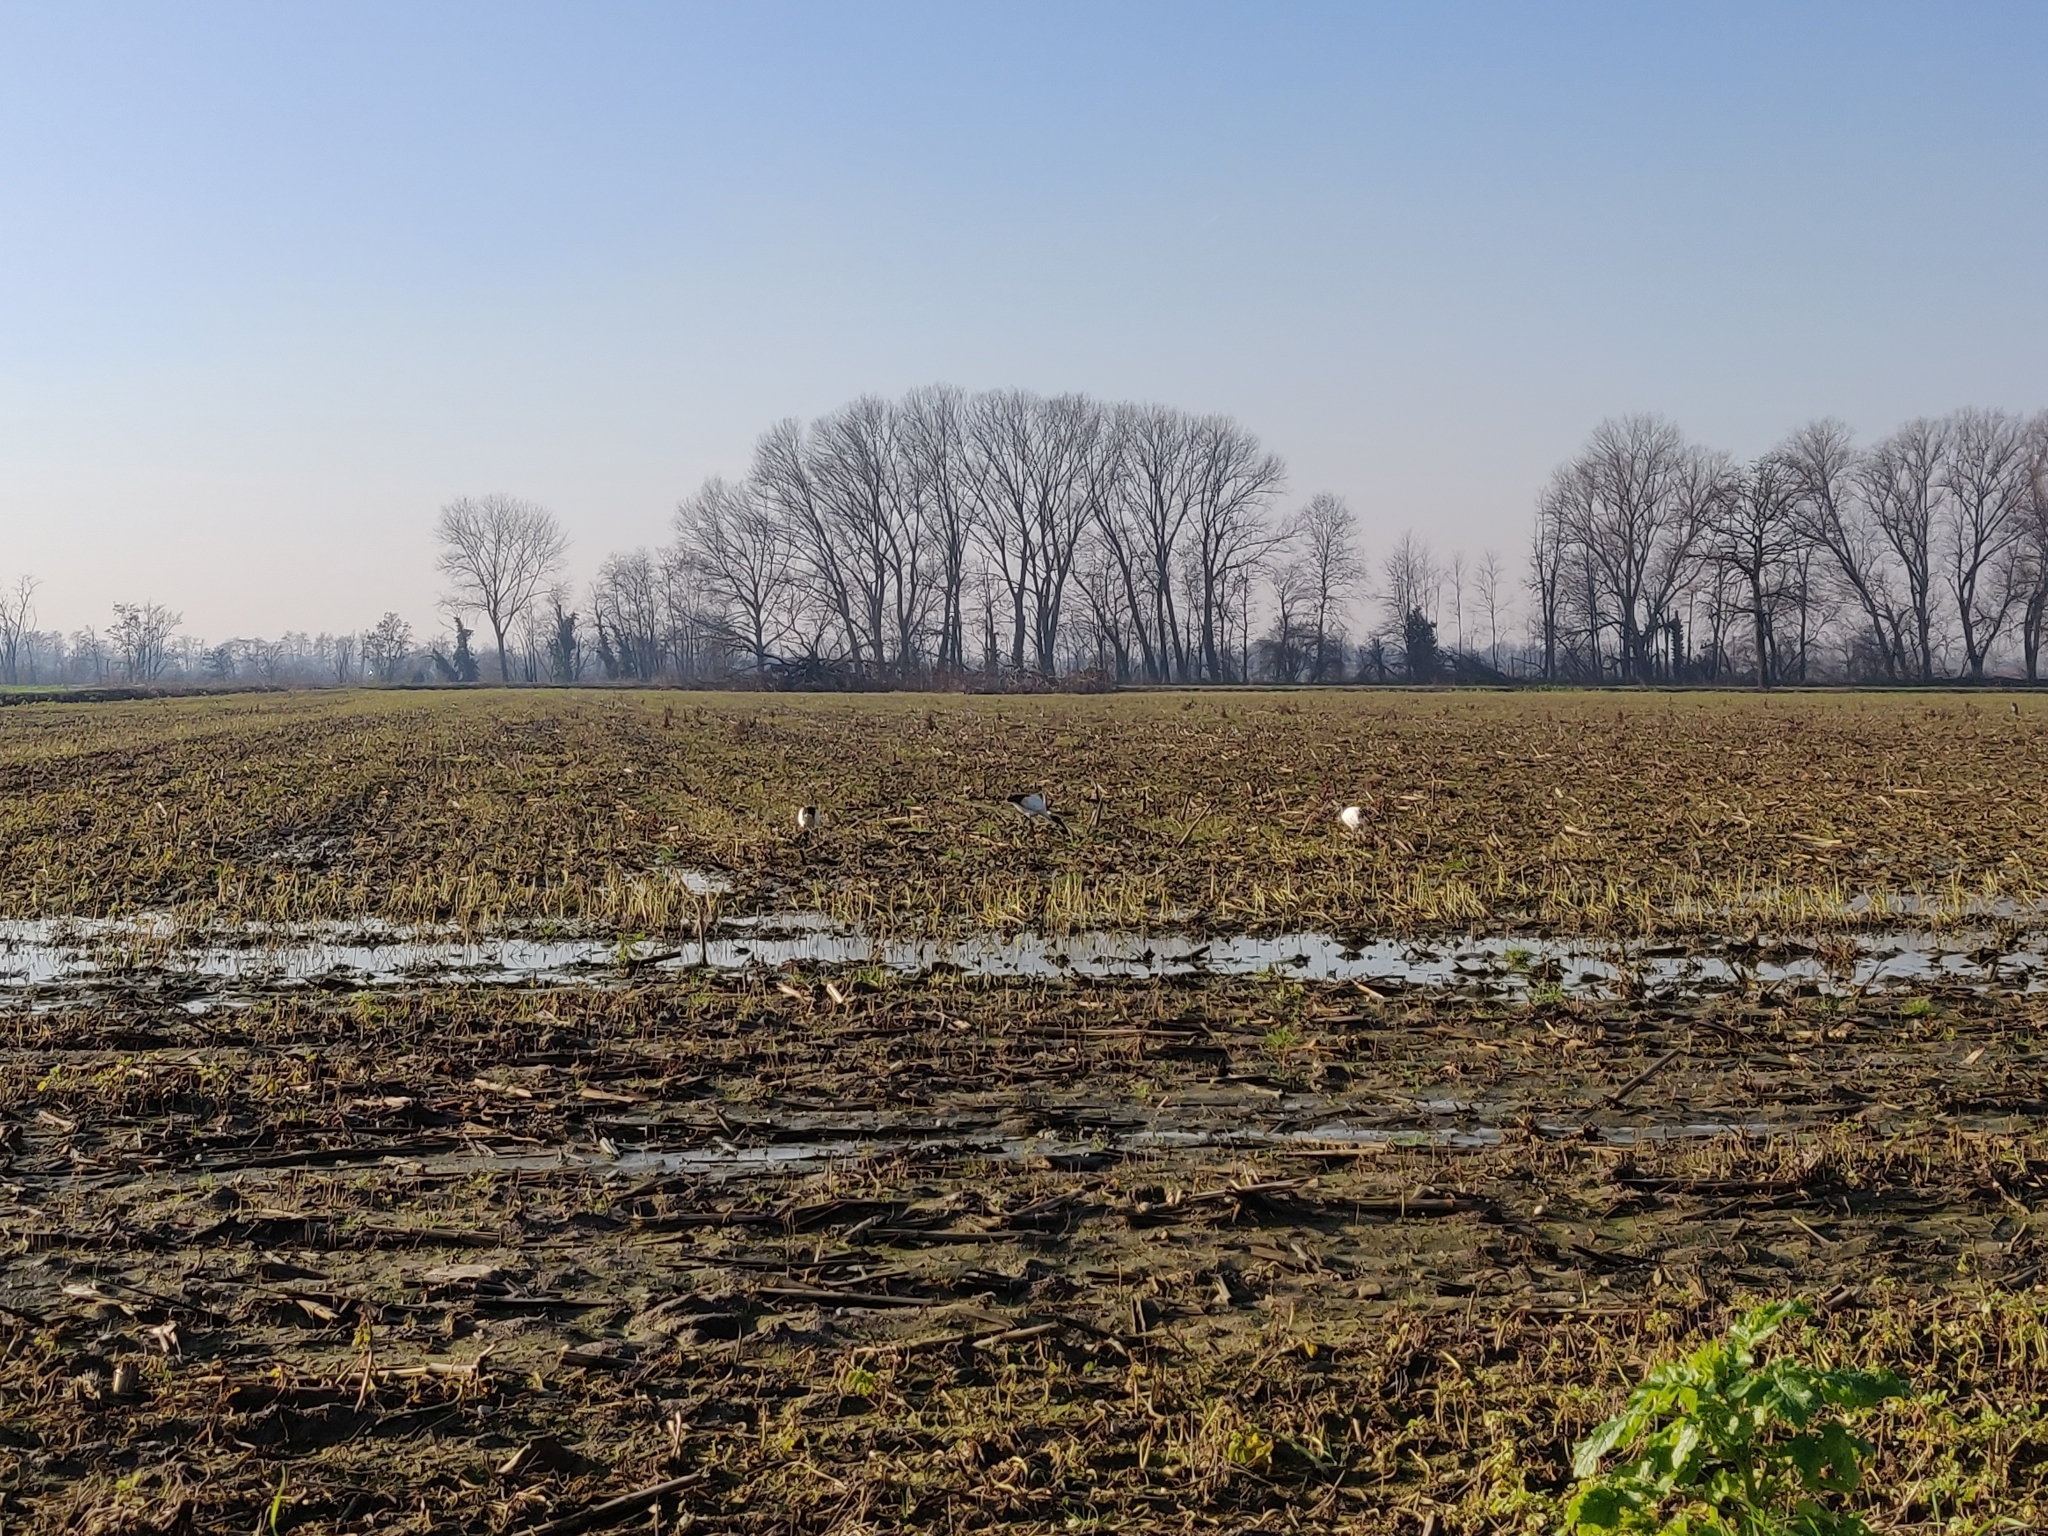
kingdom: Animalia
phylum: Chordata
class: Aves
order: Pelecaniformes
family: Threskiornithidae
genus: Threskiornis
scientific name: Threskiornis aethiopicus
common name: Sacred ibis
